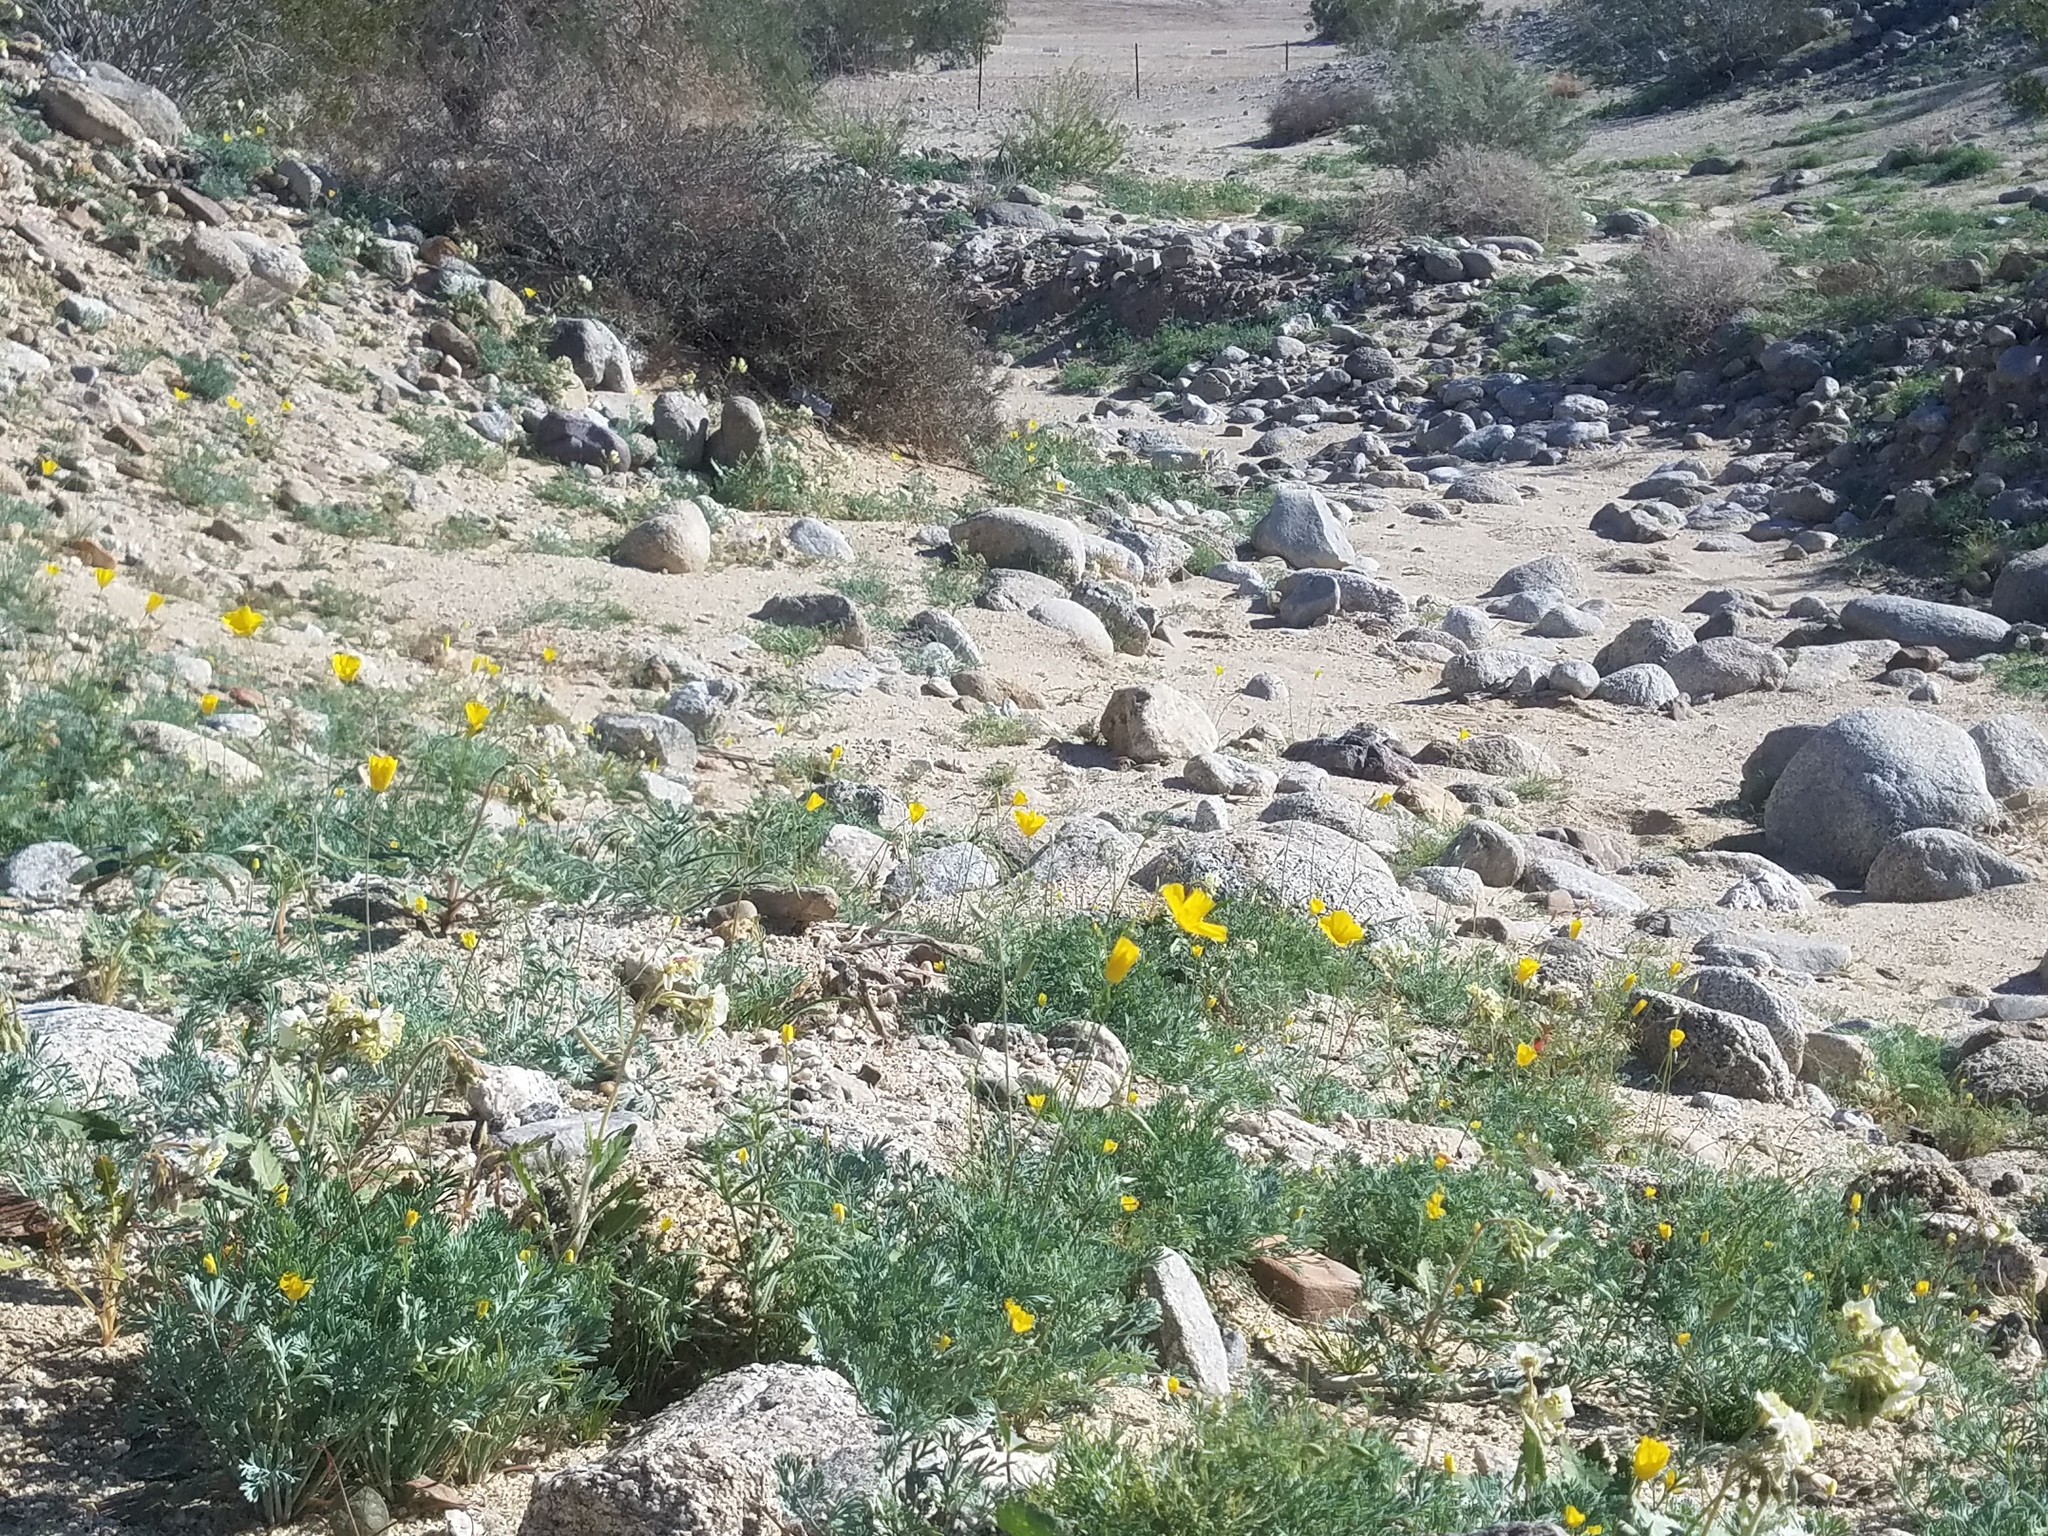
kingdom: Plantae
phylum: Tracheophyta
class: Magnoliopsida
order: Ranunculales
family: Papaveraceae
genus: Eschscholzia
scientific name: Eschscholzia parishii
